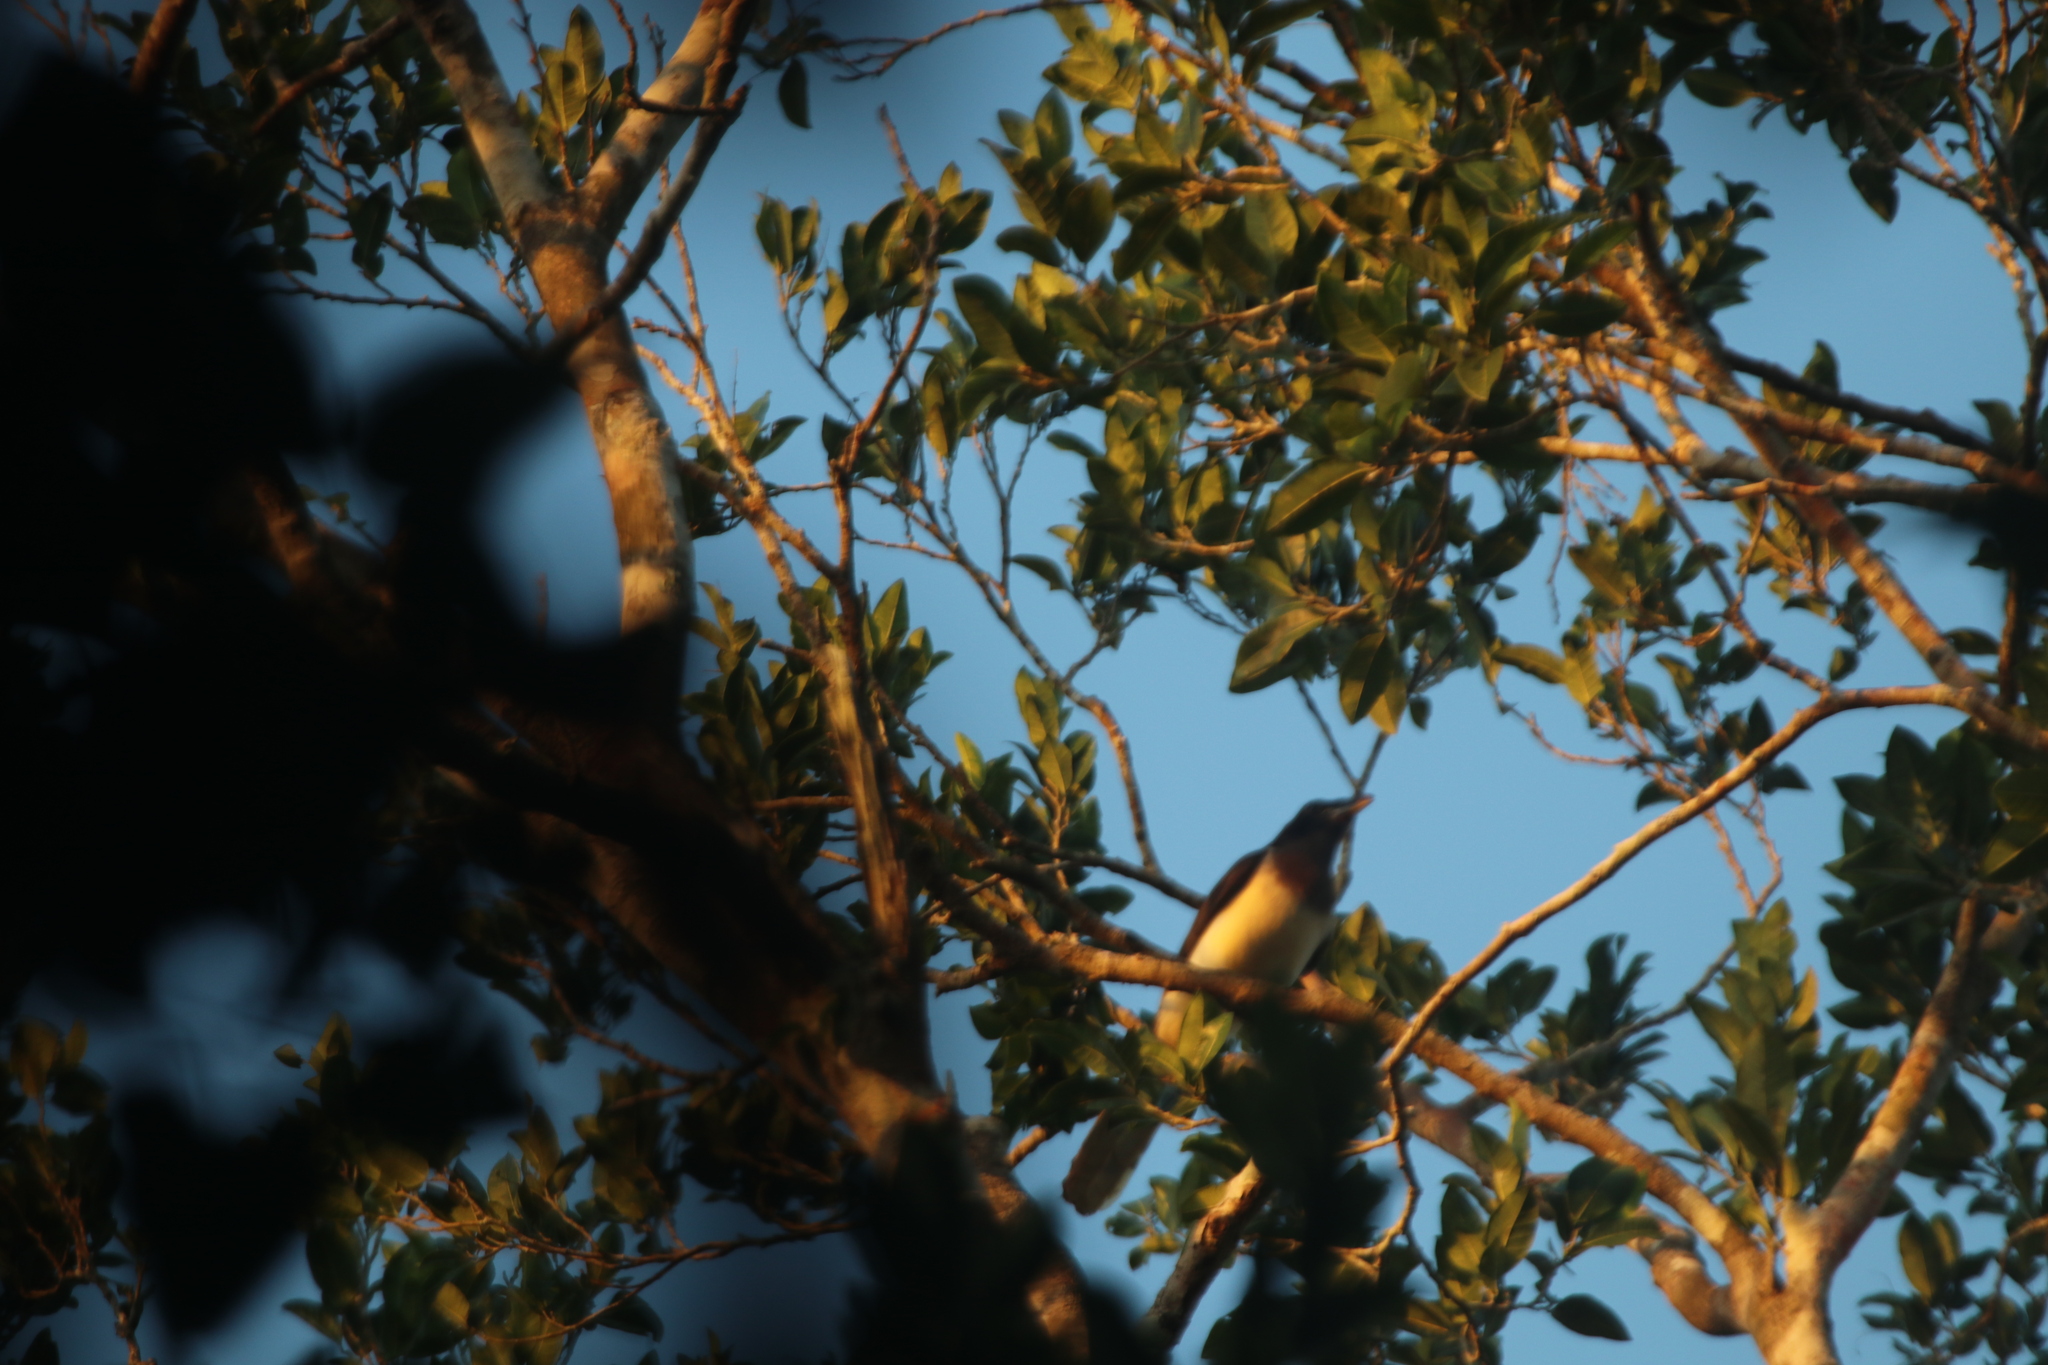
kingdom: Animalia
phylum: Chordata
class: Aves
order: Passeriformes
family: Corvidae
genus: Psilorhinus
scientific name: Psilorhinus morio
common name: Brown jay
